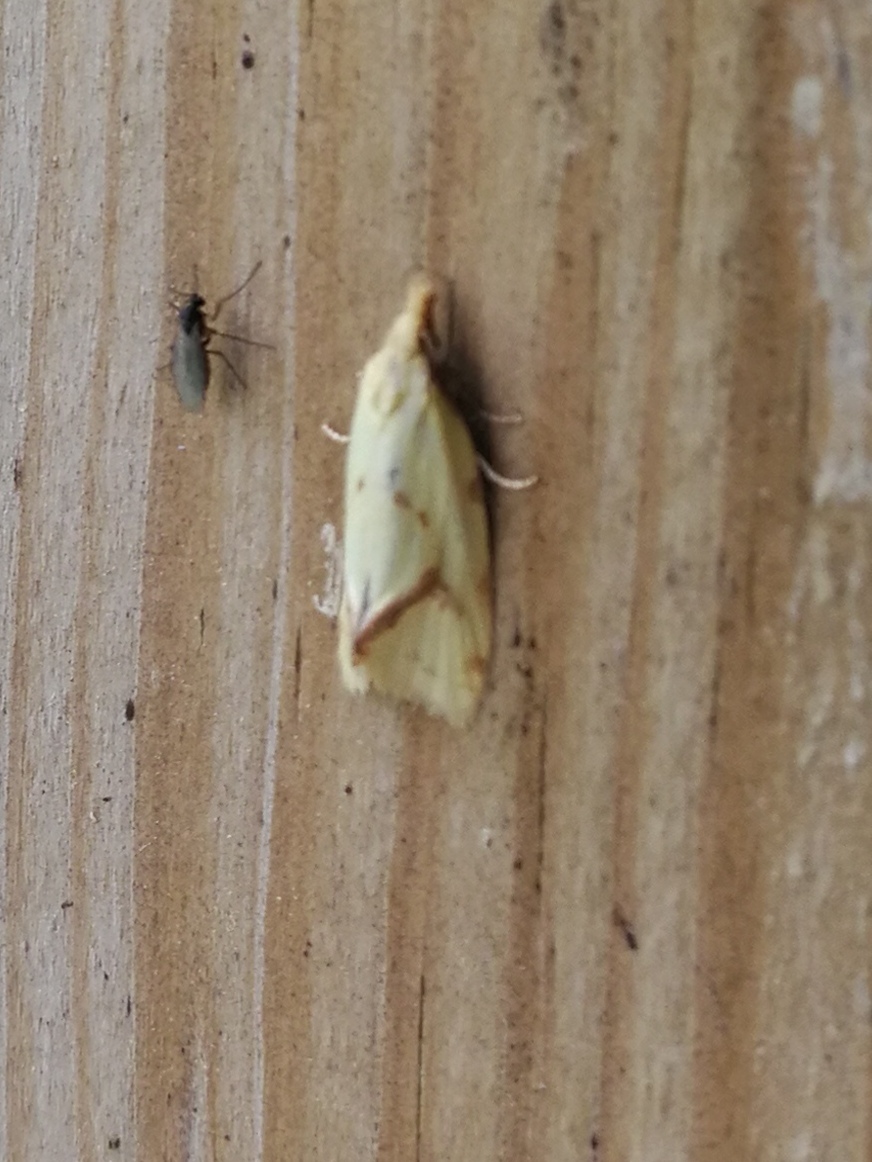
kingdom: Animalia
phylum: Arthropoda
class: Insecta
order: Lepidoptera
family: Tortricidae
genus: Agapeta
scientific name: Agapeta hamana
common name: Common yellow conch
